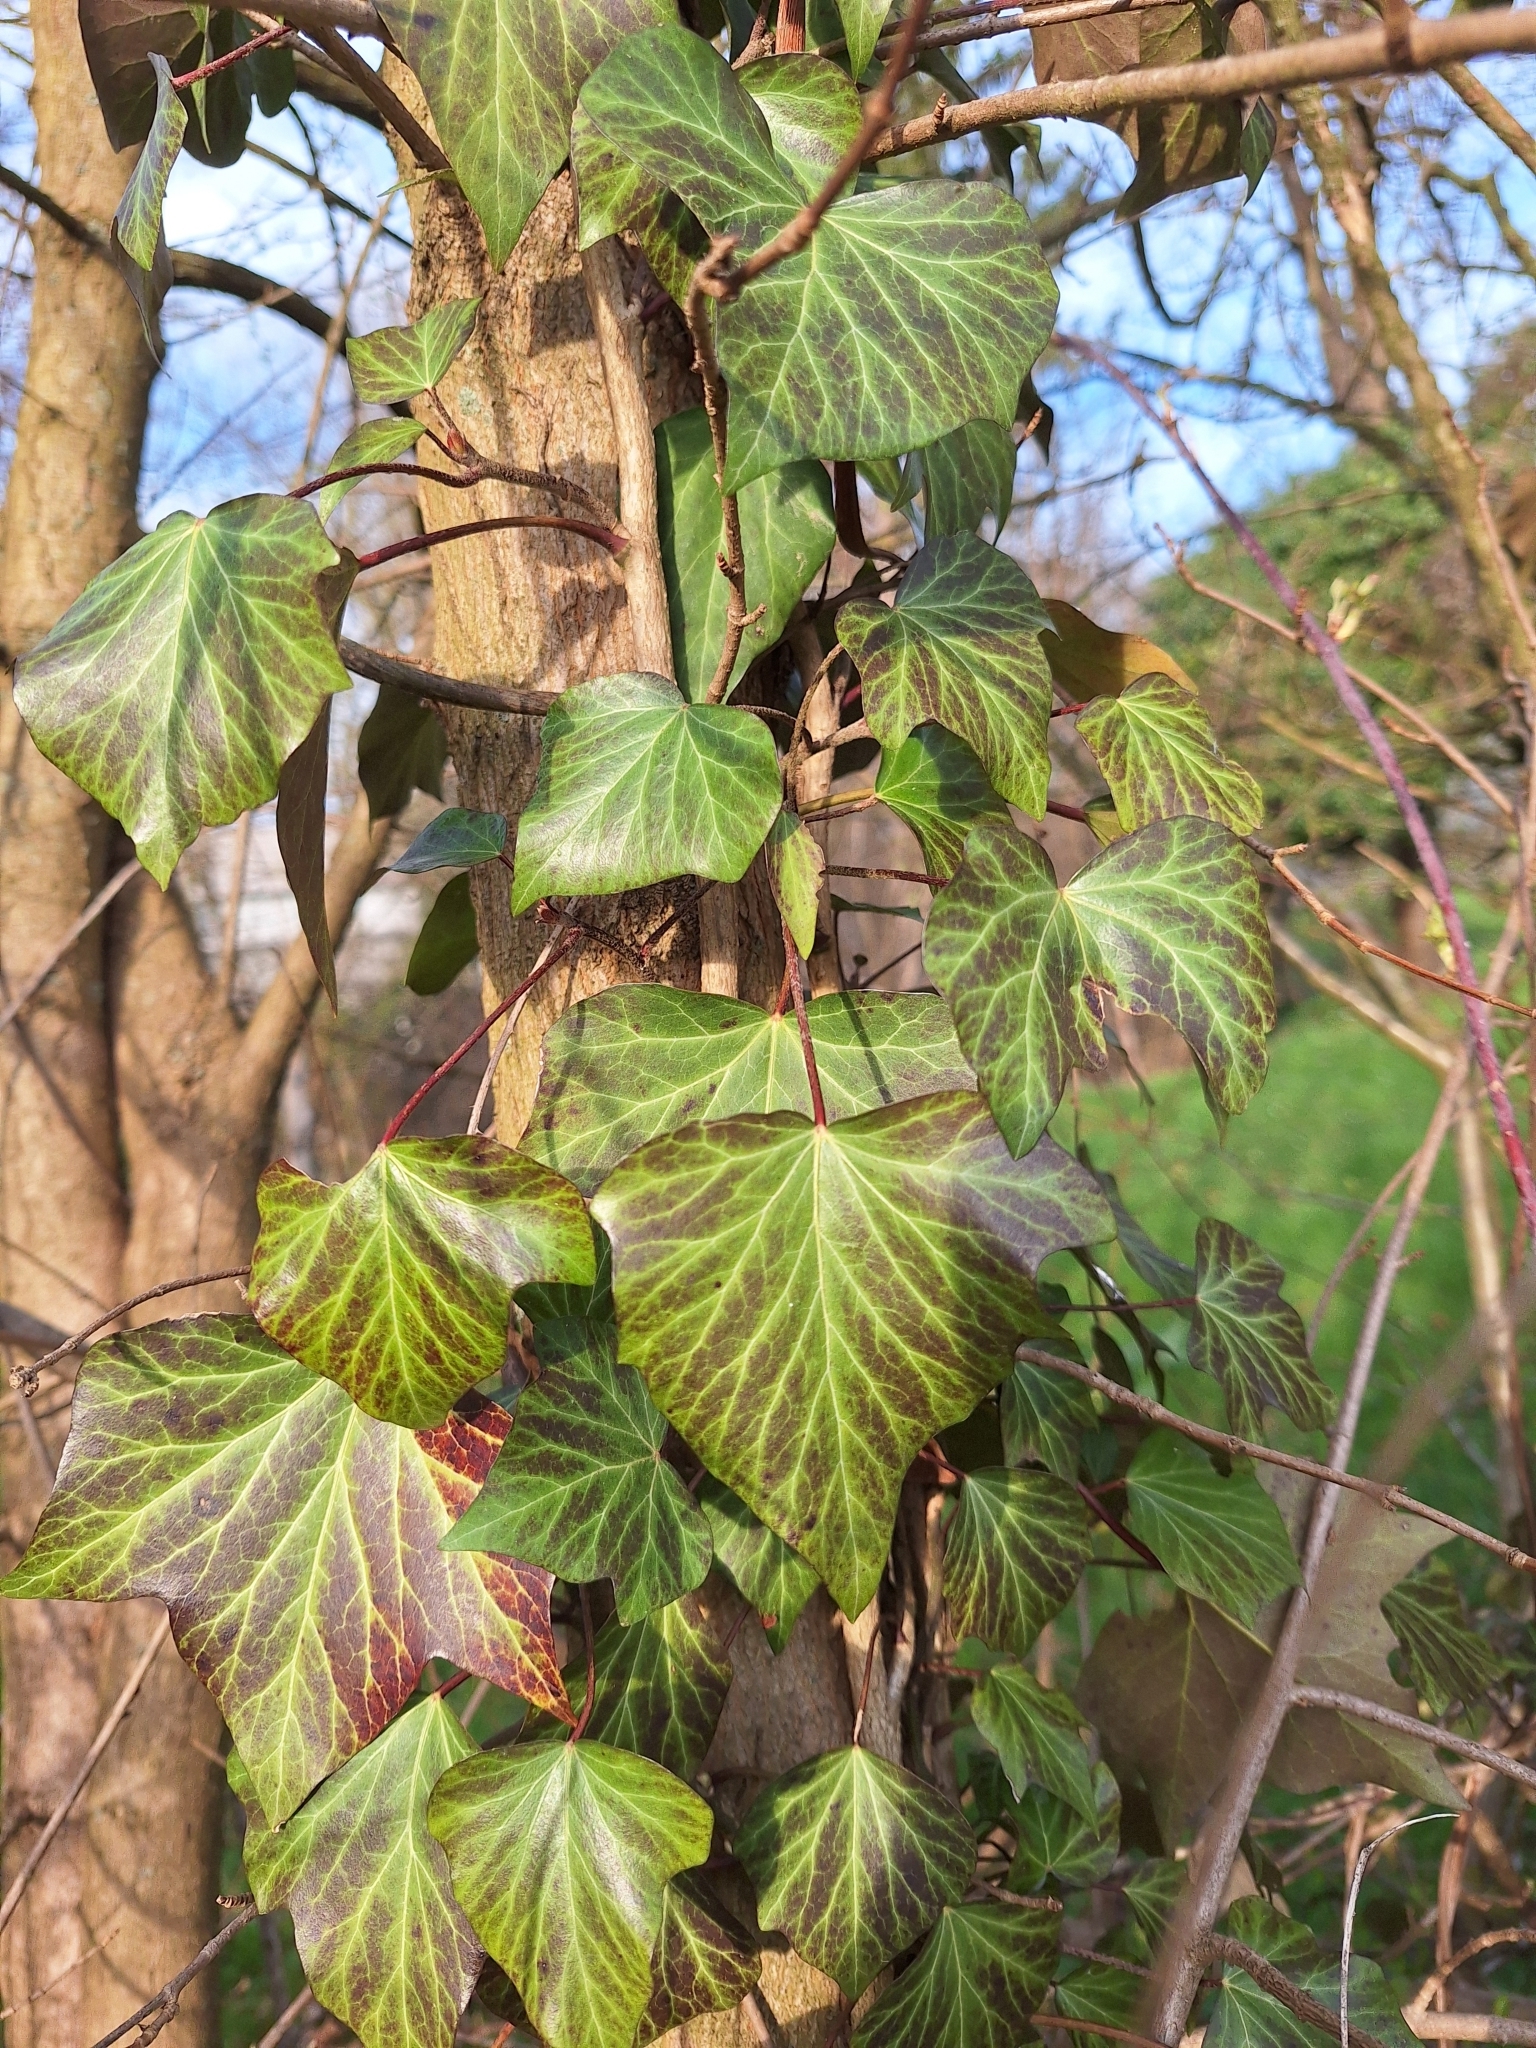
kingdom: Plantae
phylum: Tracheophyta
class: Magnoliopsida
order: Apiales
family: Araliaceae
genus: Hedera
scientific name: Hedera helix
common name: Ivy
